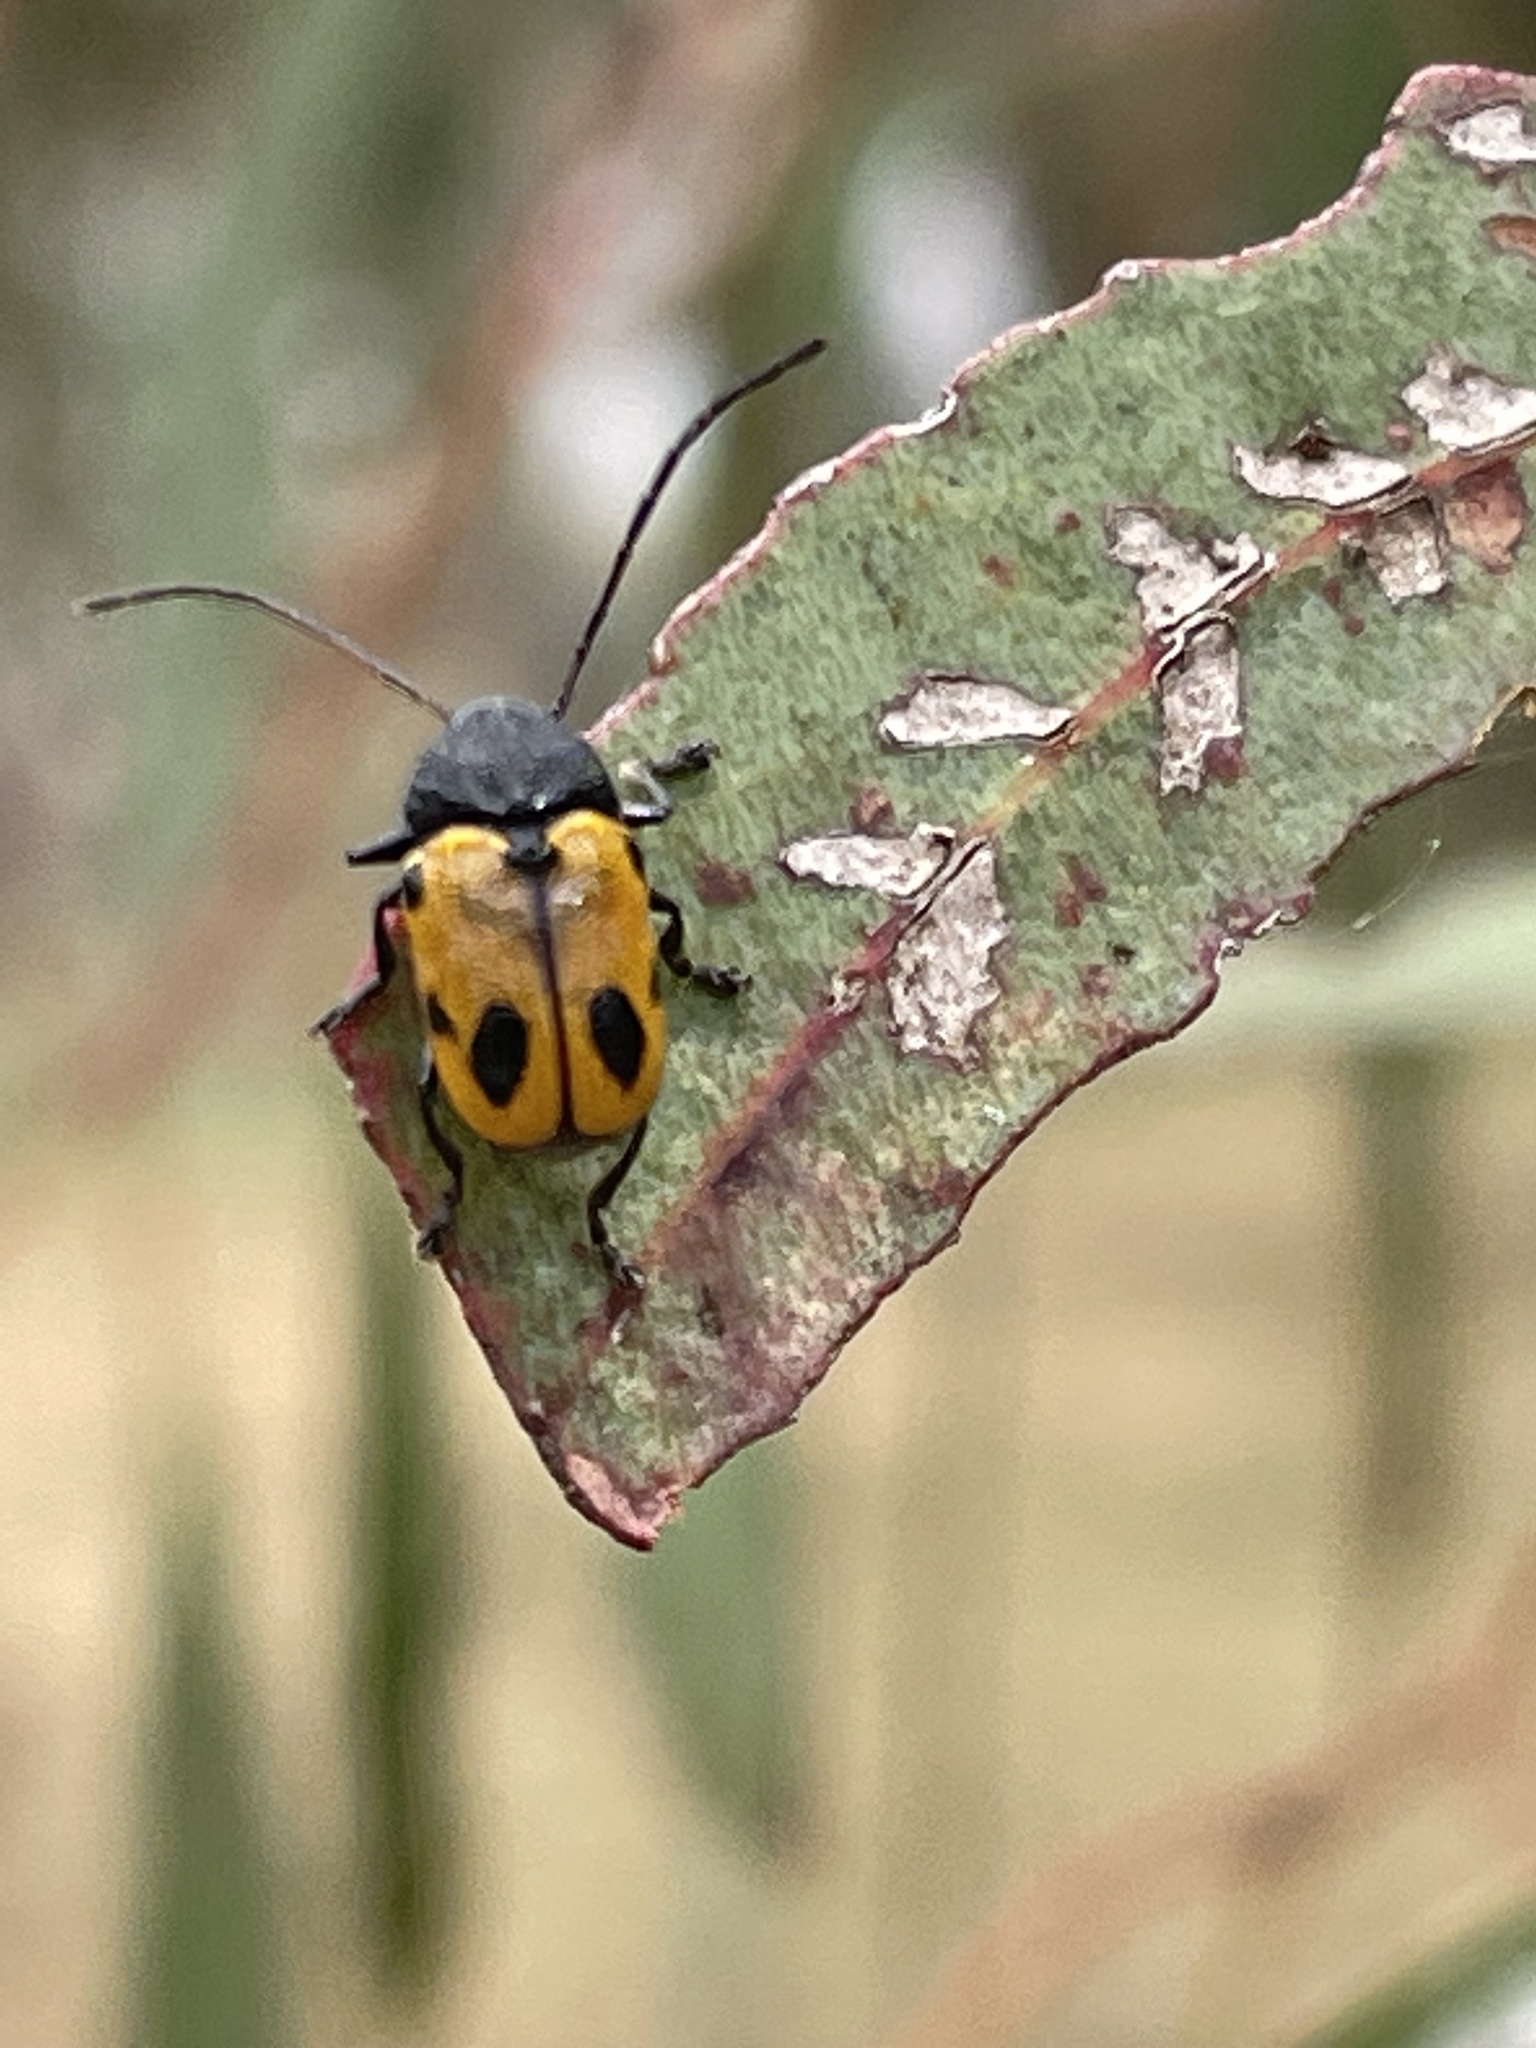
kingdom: Animalia
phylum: Arthropoda
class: Insecta
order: Coleoptera
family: Chrysomelidae
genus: Cadmus
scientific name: Cadmus
